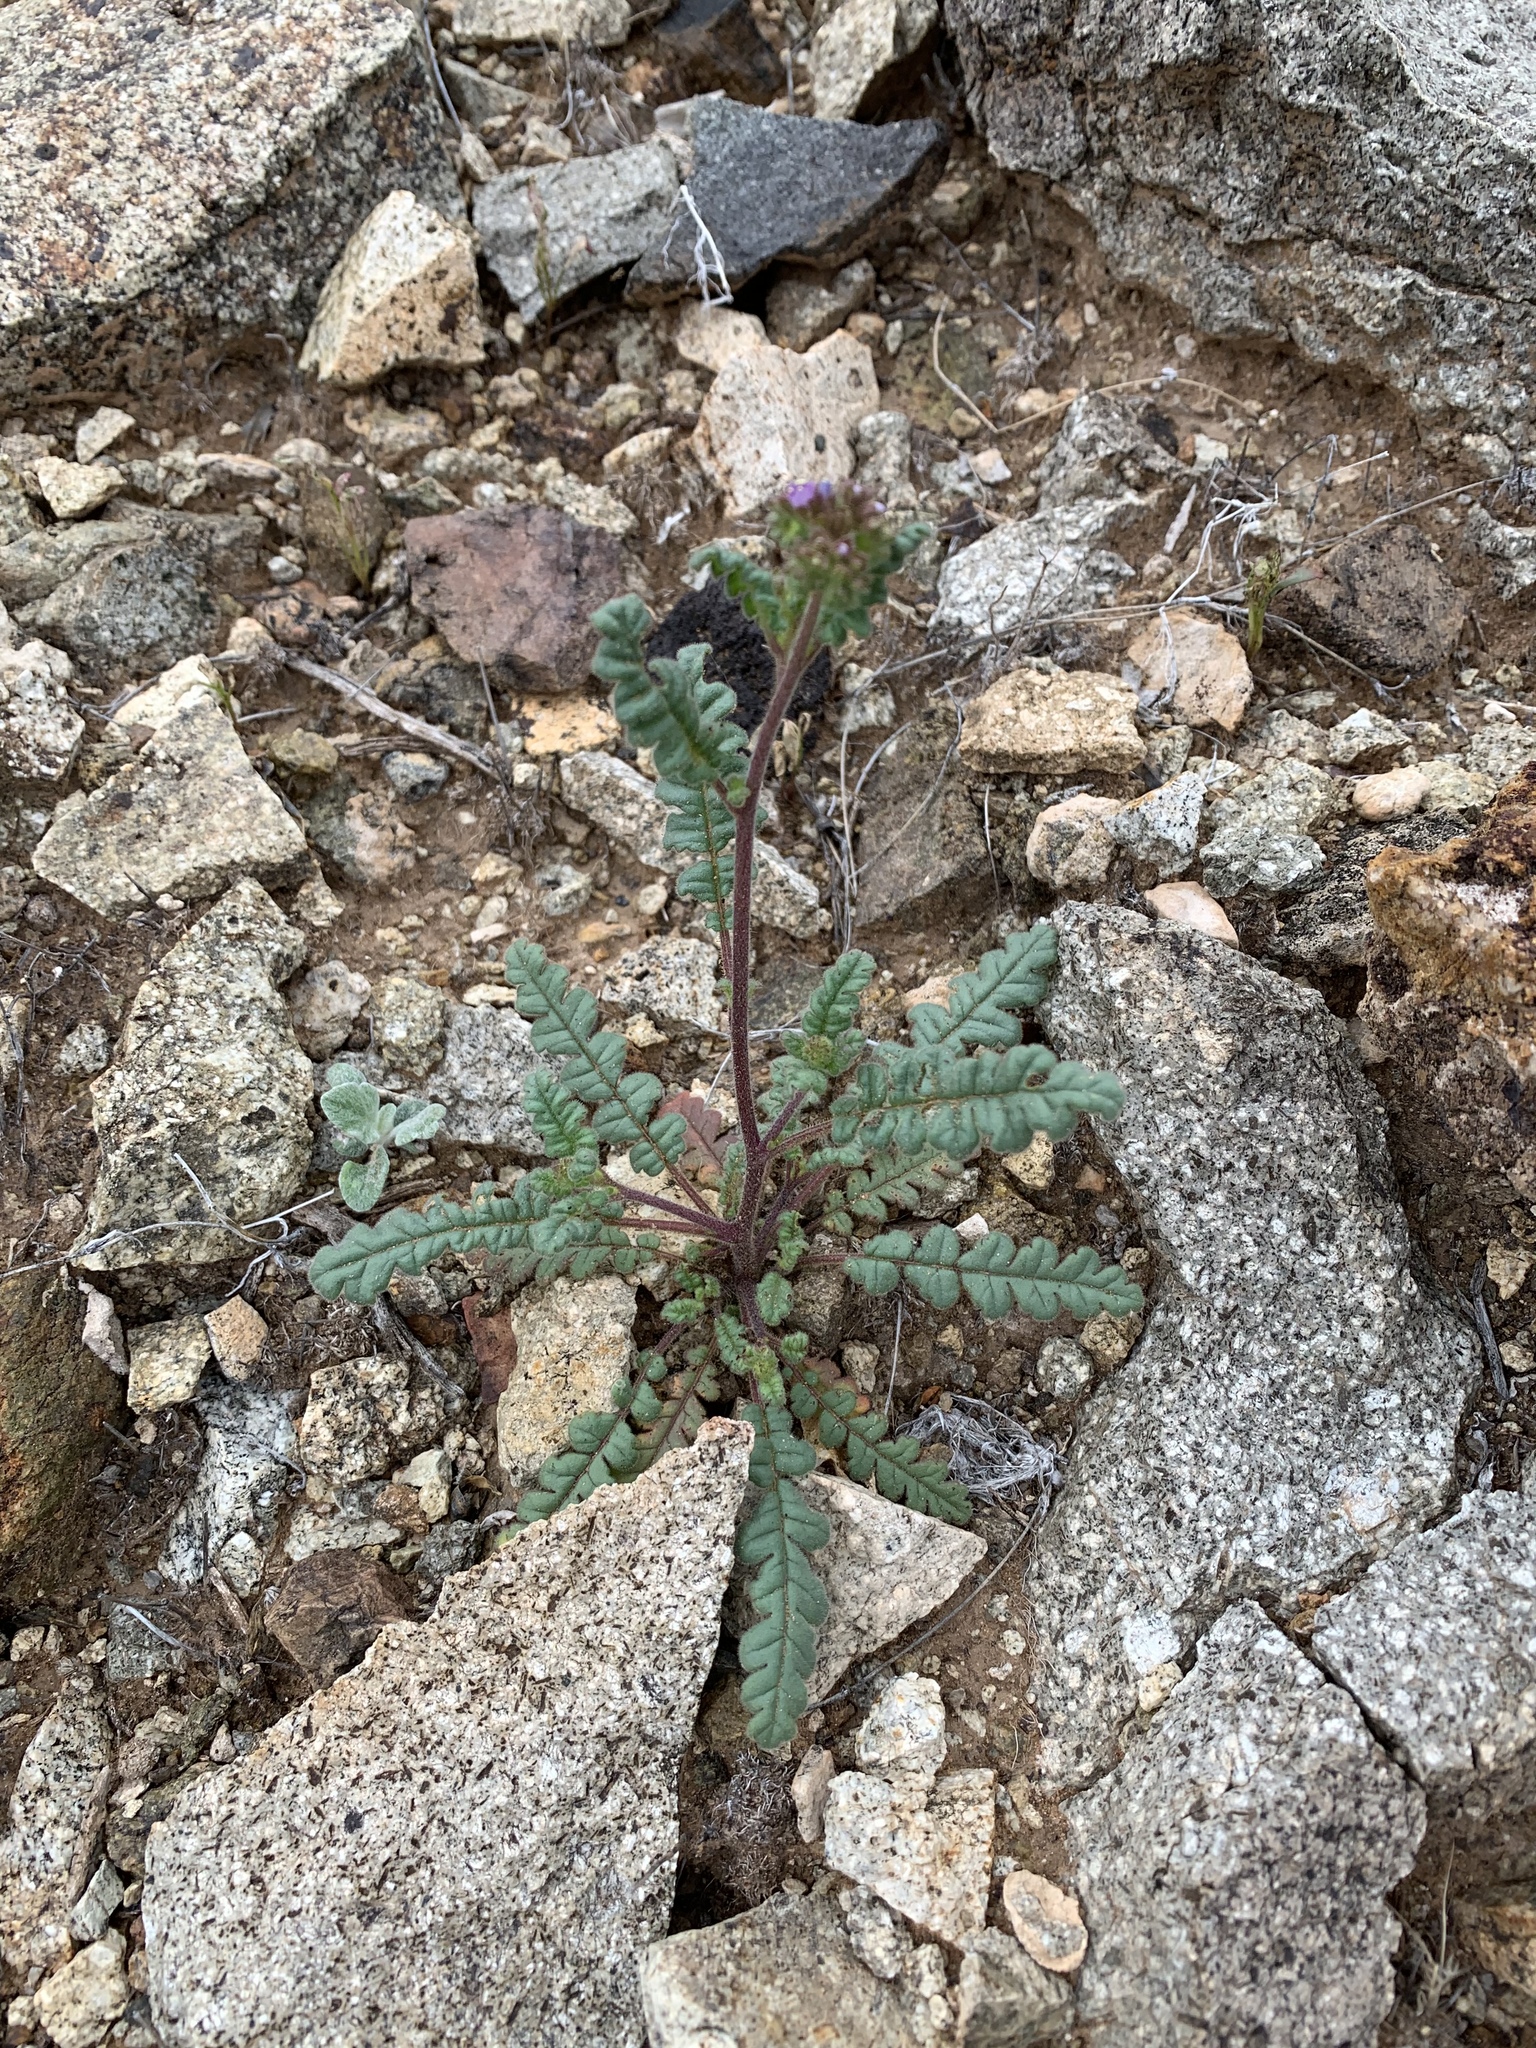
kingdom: Plantae
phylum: Tracheophyta
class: Magnoliopsida
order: Boraginales
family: Hydrophyllaceae
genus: Phacelia
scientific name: Phacelia coerulea
